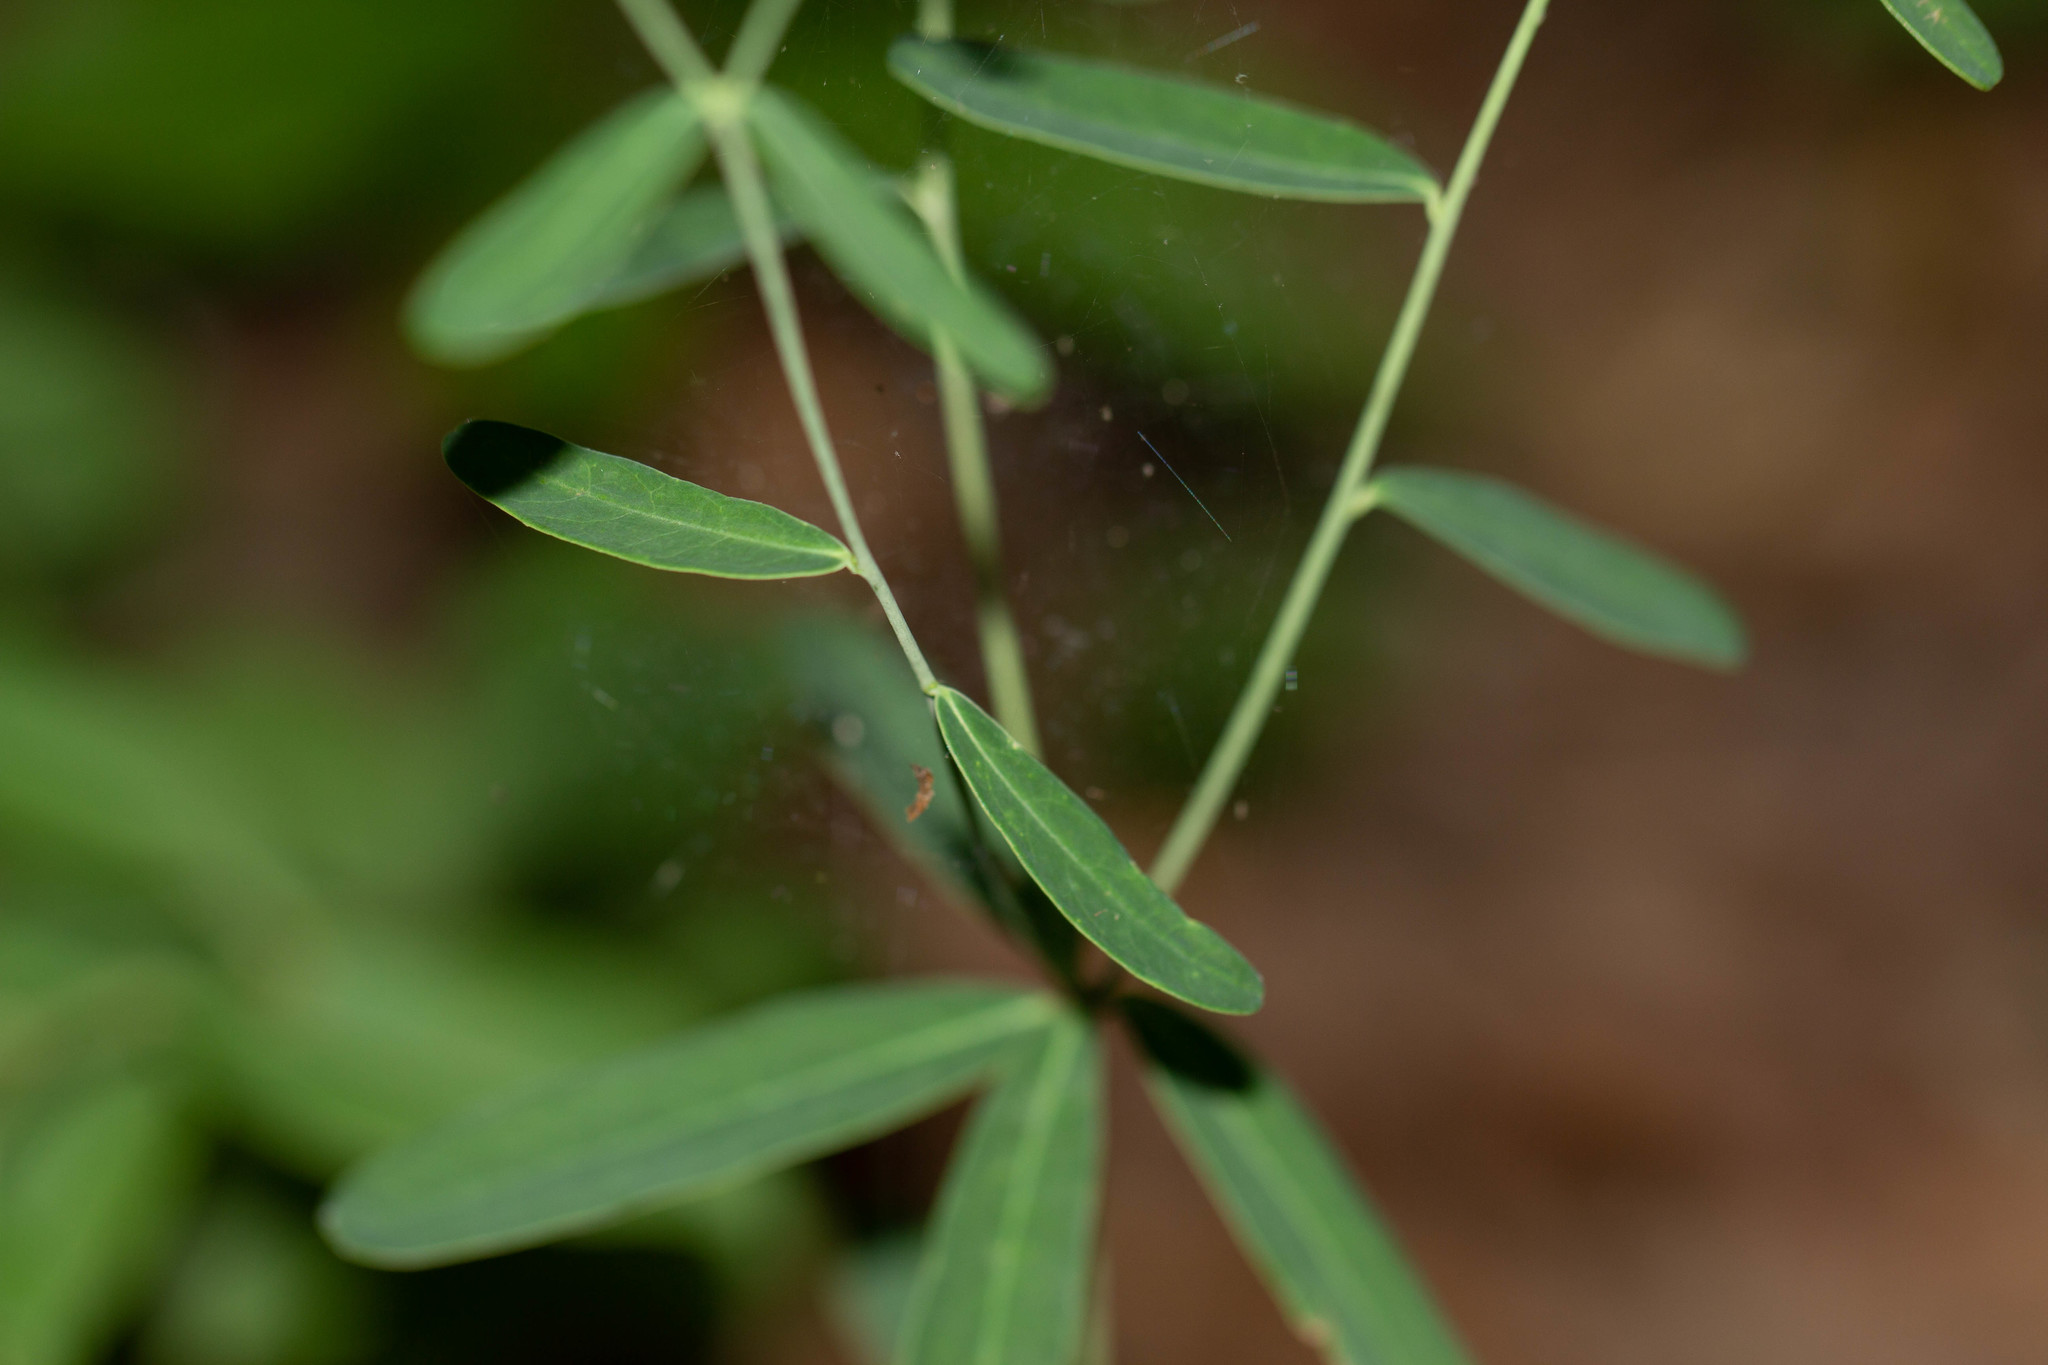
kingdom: Plantae
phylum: Tracheophyta
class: Magnoliopsida
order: Malpighiales
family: Euphorbiaceae
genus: Euphorbia
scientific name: Euphorbia corollata
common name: Flowering spurge
